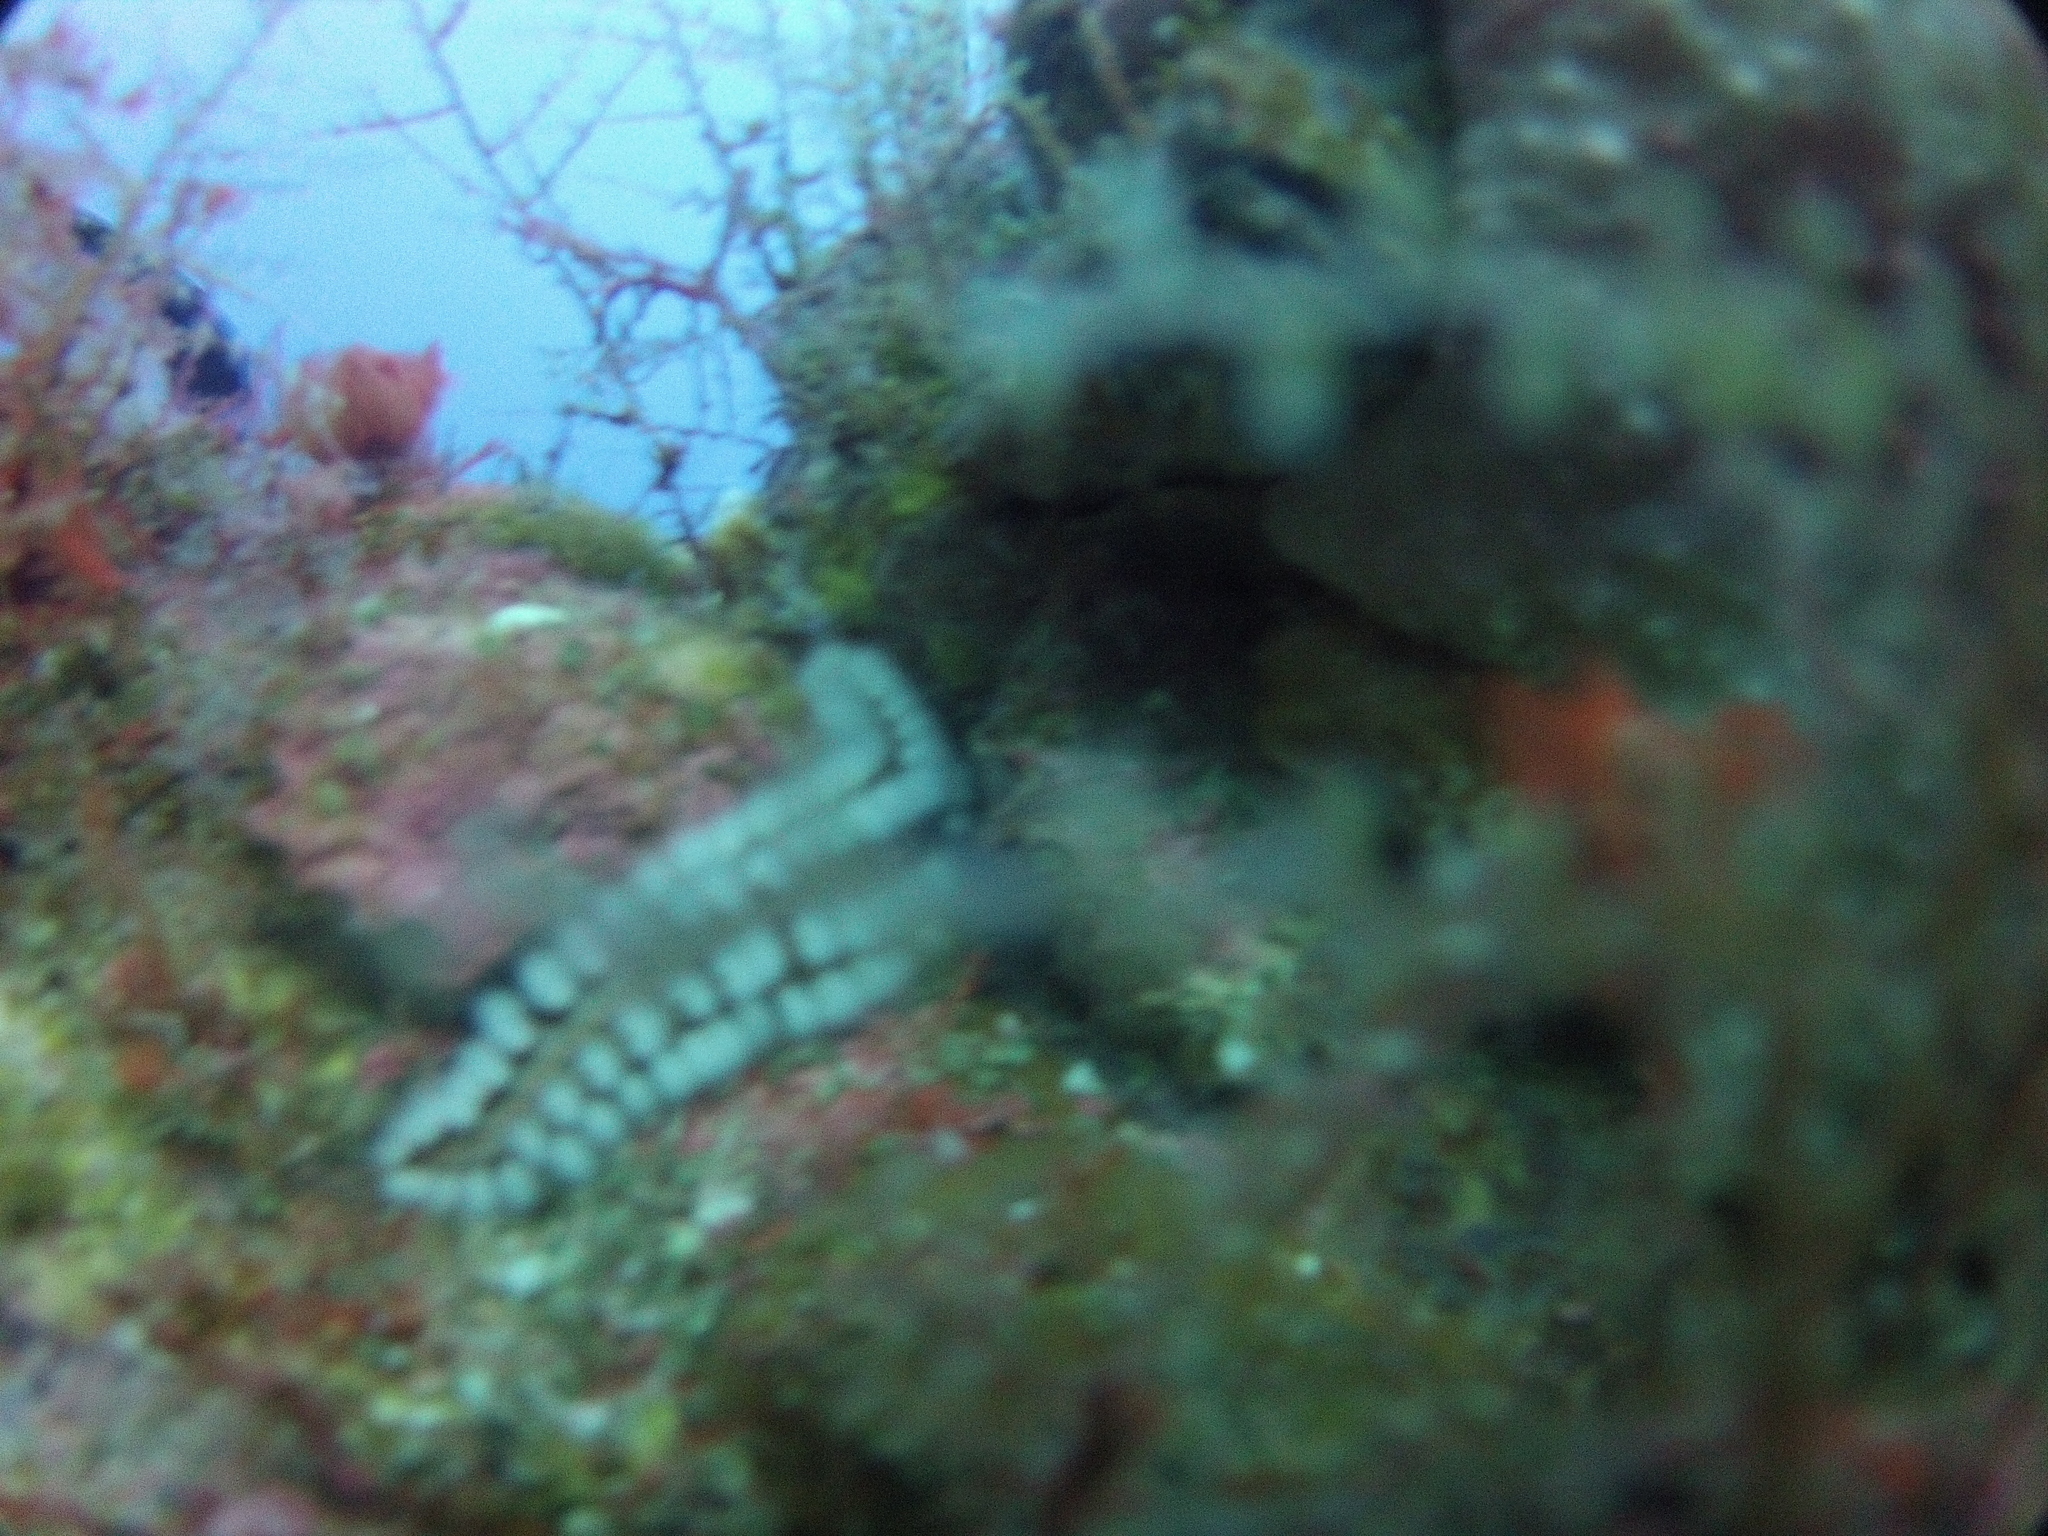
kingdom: Animalia
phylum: Annelida
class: Polychaeta
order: Amphinomida
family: Amphinomidae
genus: Hermodice
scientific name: Hermodice carunculata
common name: Bearded fireworm
